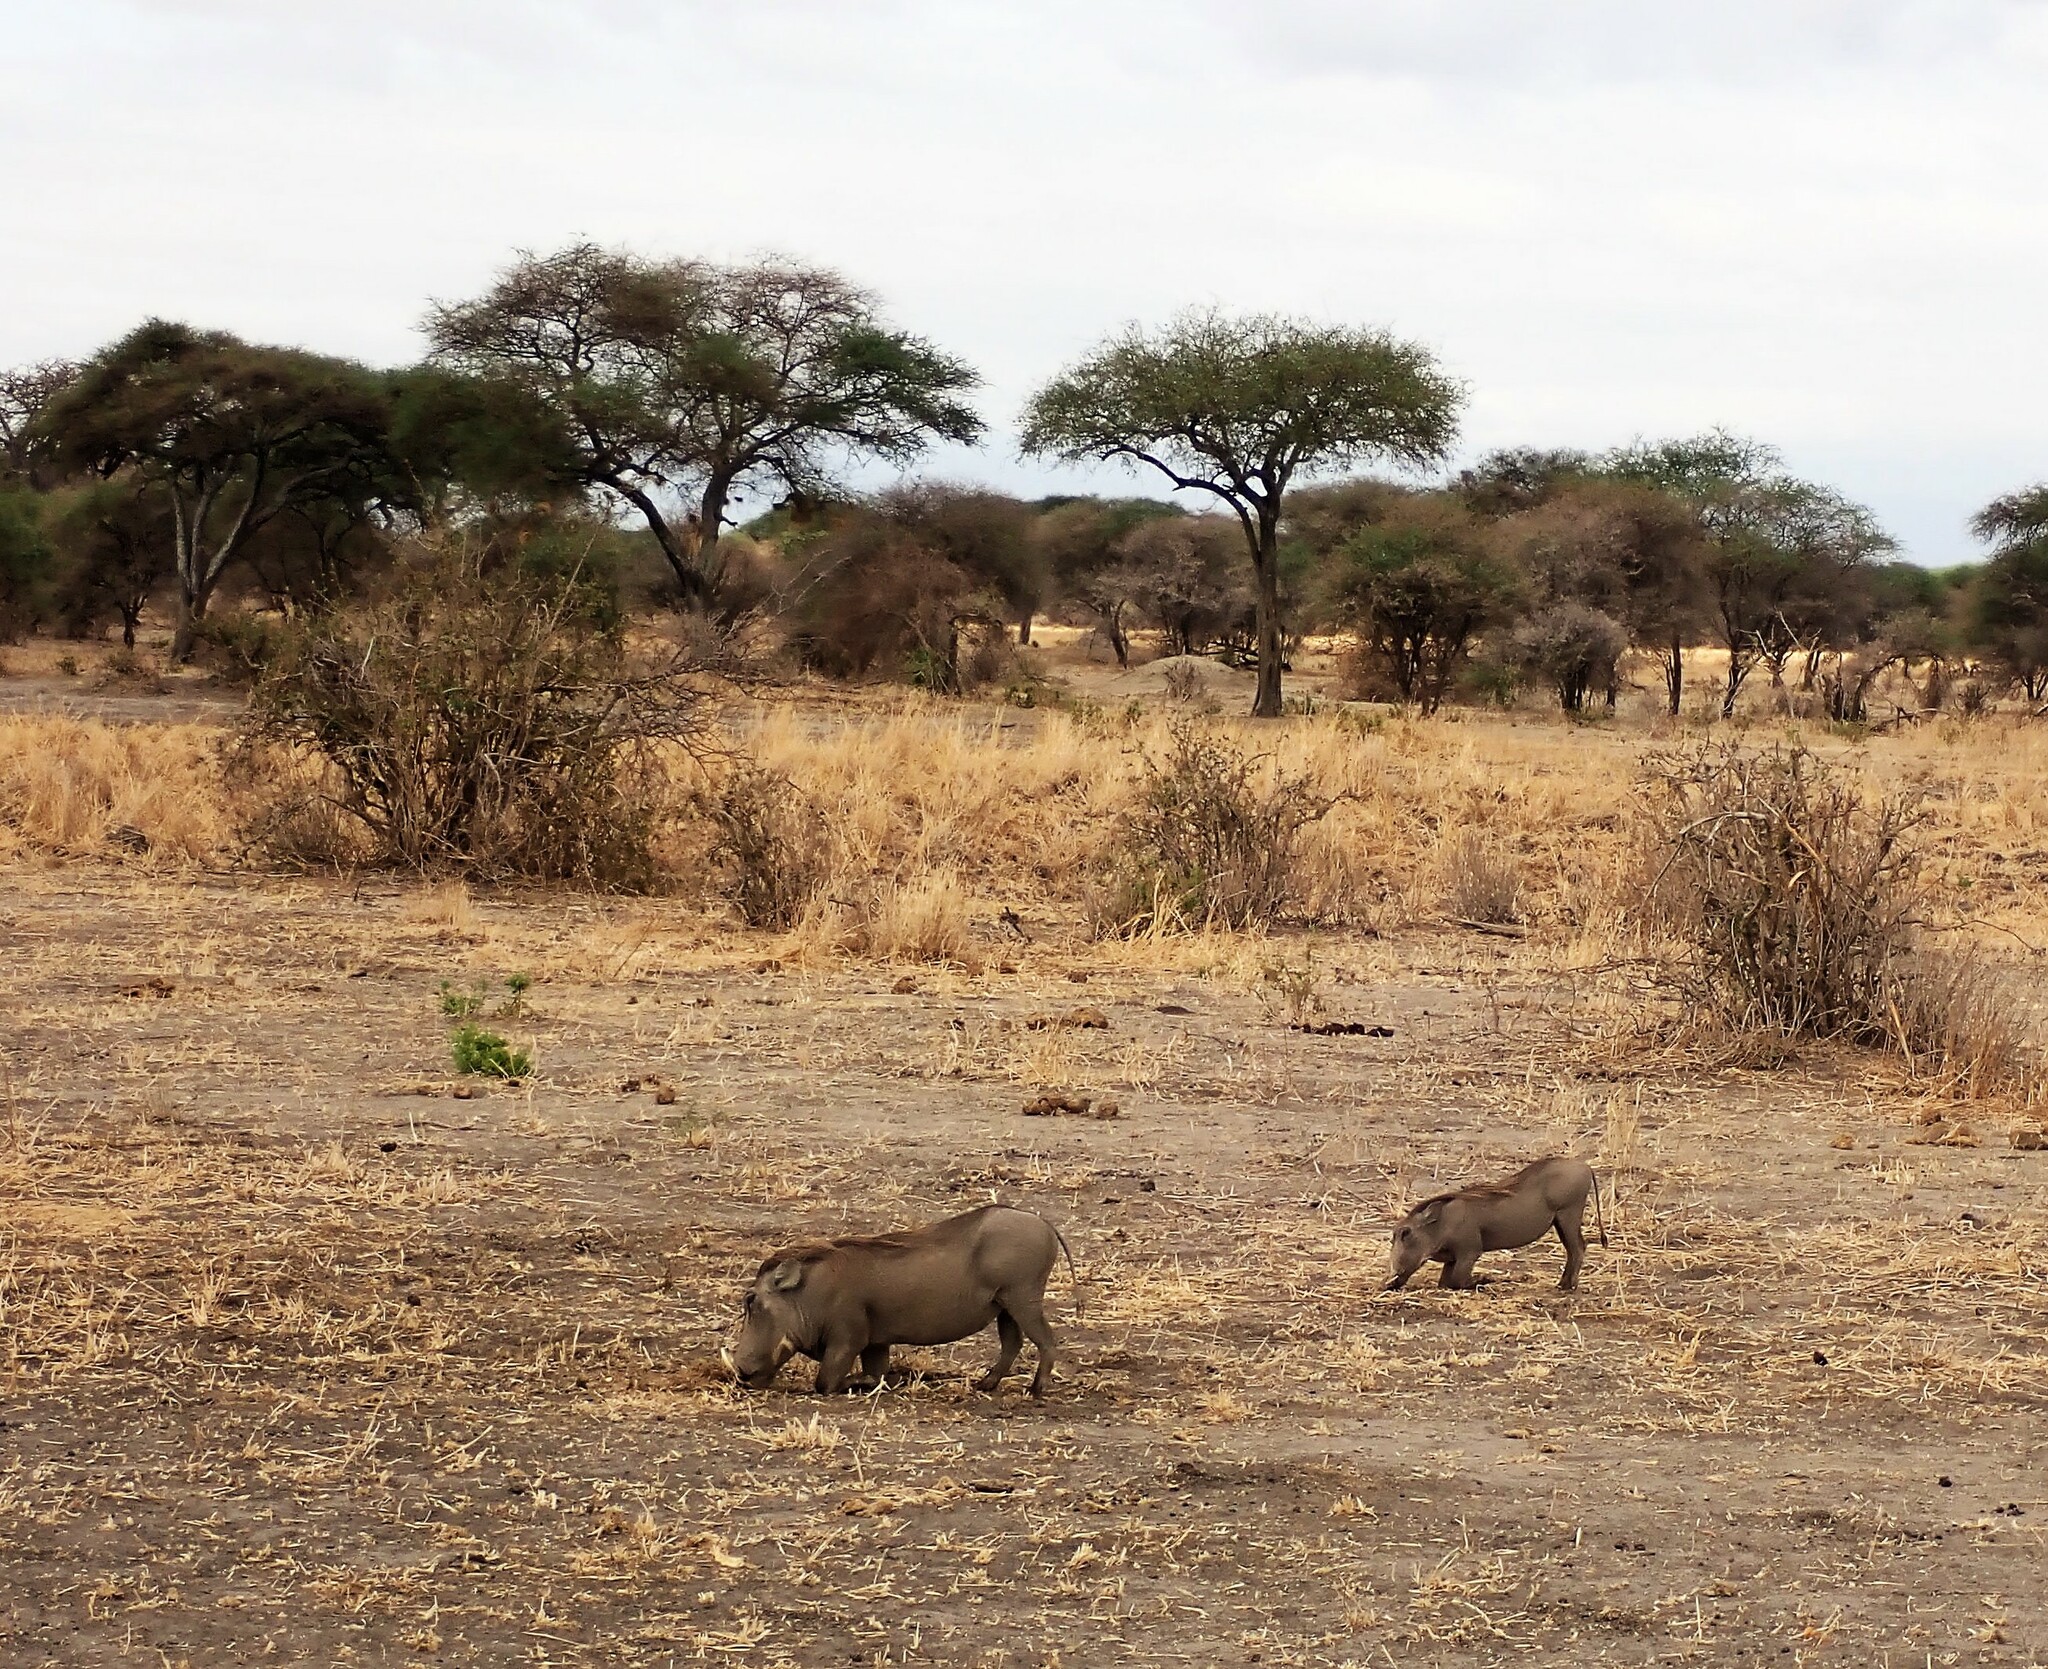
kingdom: Animalia
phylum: Chordata
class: Mammalia
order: Artiodactyla
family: Suidae
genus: Phacochoerus
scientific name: Phacochoerus africanus
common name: Common warthog
